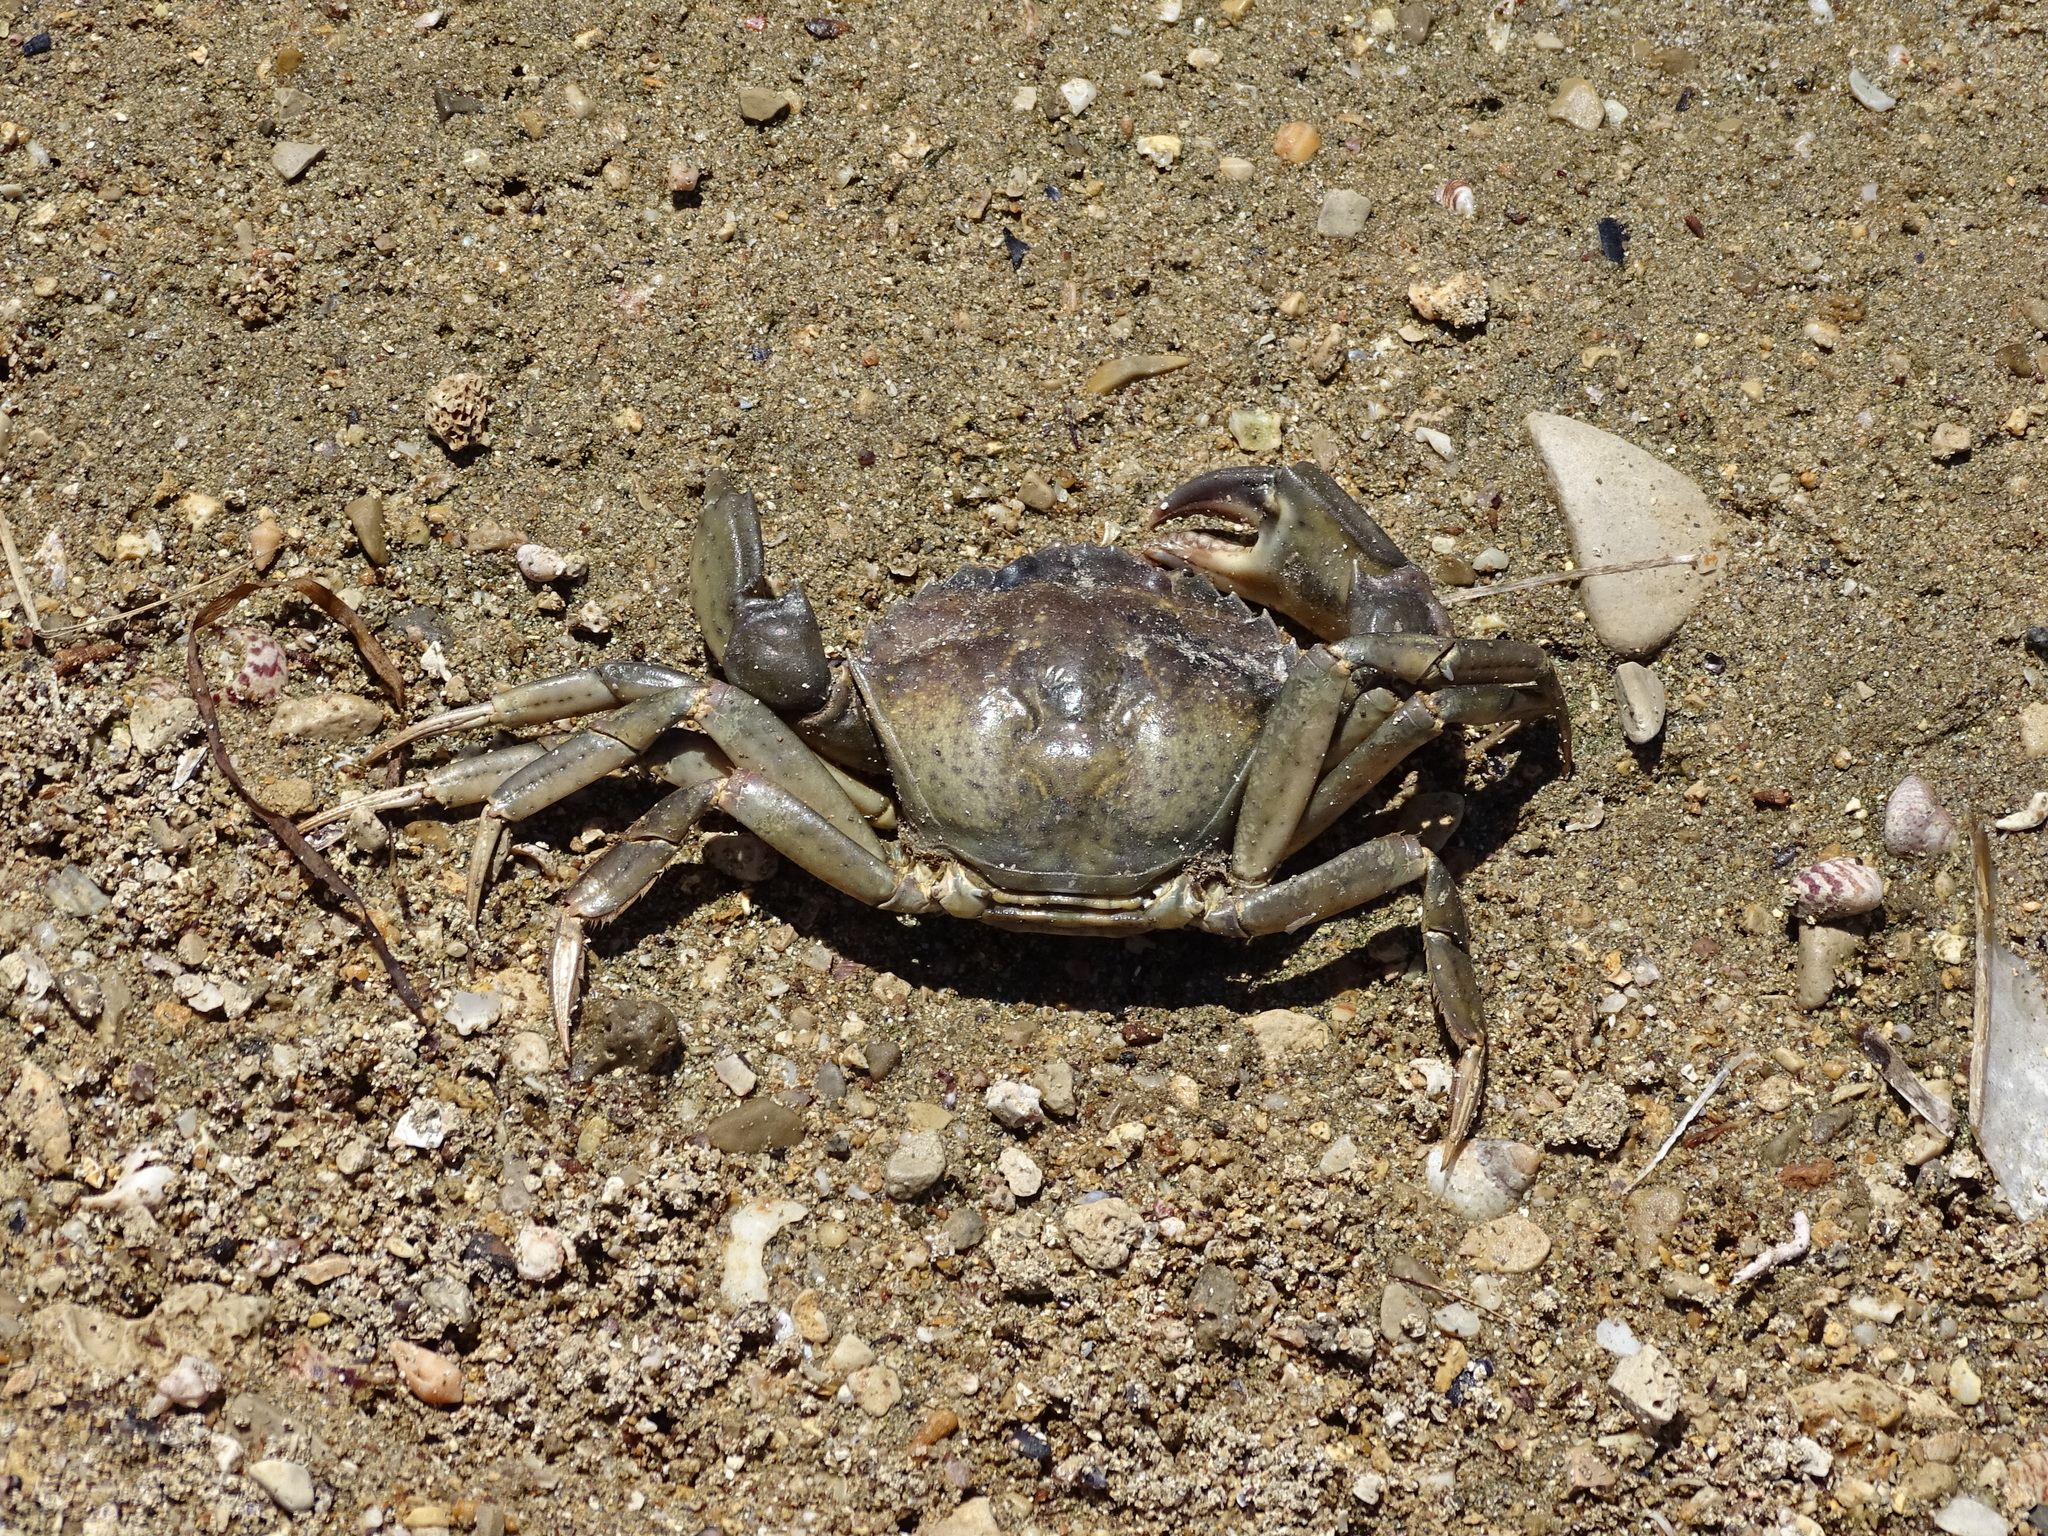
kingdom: Animalia
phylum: Arthropoda
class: Malacostraca
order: Decapoda
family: Carcinidae
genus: Carcinus
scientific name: Carcinus aestuarii
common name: Mediterranean green crab
